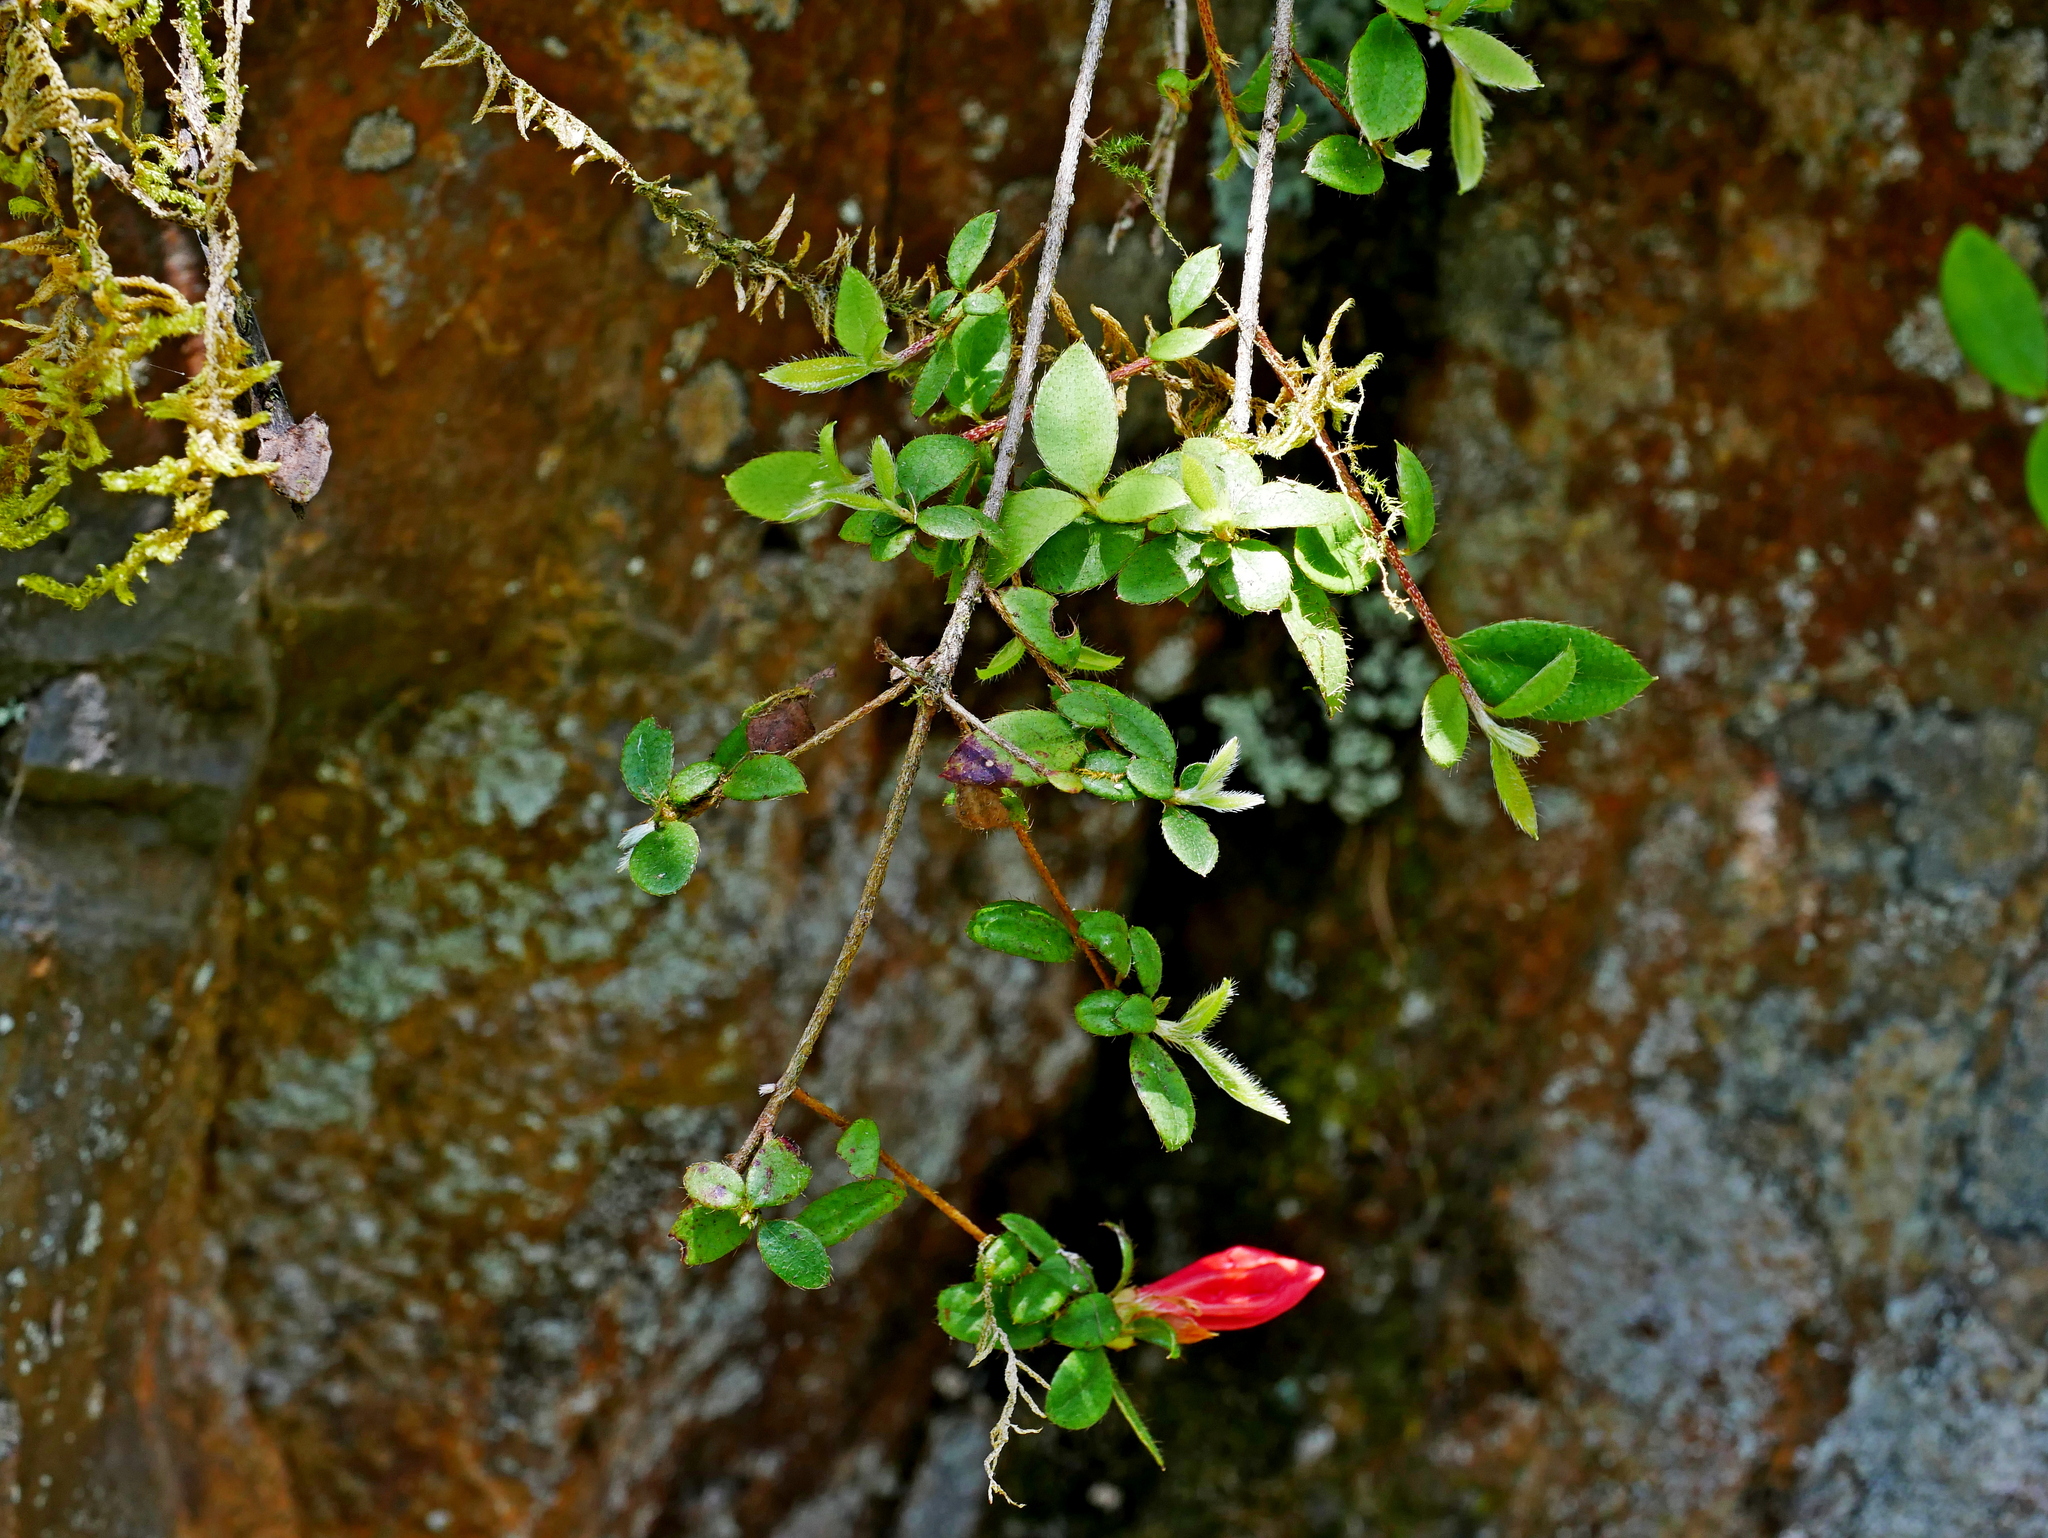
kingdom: Plantae
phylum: Tracheophyta
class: Magnoliopsida
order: Ericales
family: Ericaceae
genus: Rhododendron
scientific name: Rhododendron nakaharae
